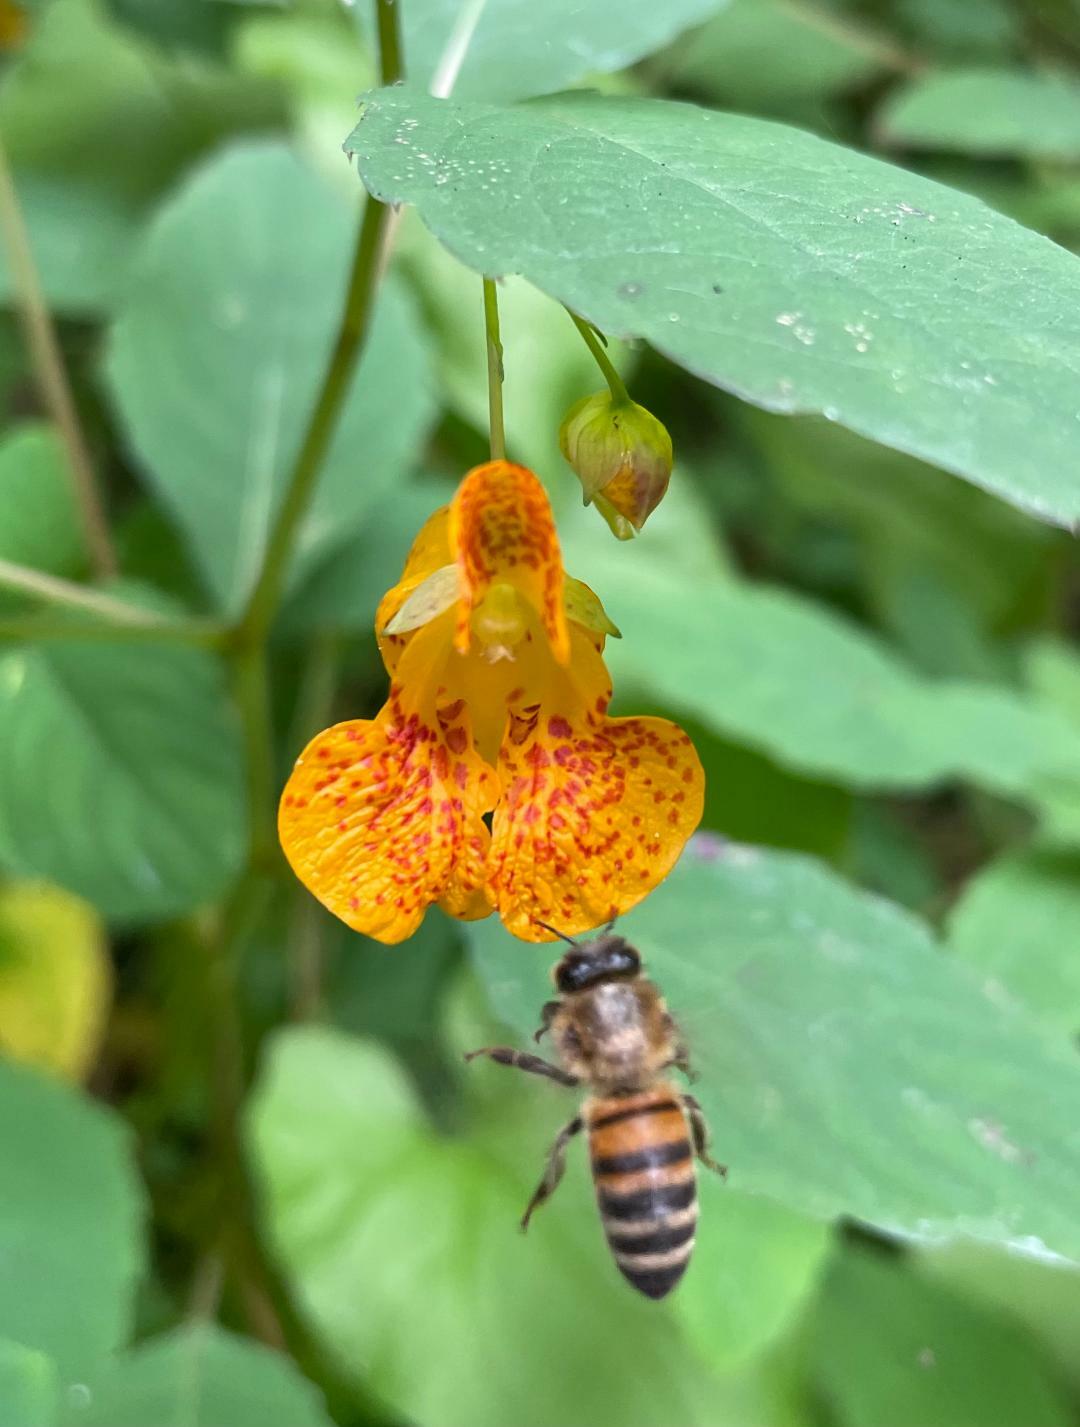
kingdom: Plantae
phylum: Tracheophyta
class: Magnoliopsida
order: Ericales
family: Balsaminaceae
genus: Impatiens
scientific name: Impatiens capensis
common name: Orange balsam
